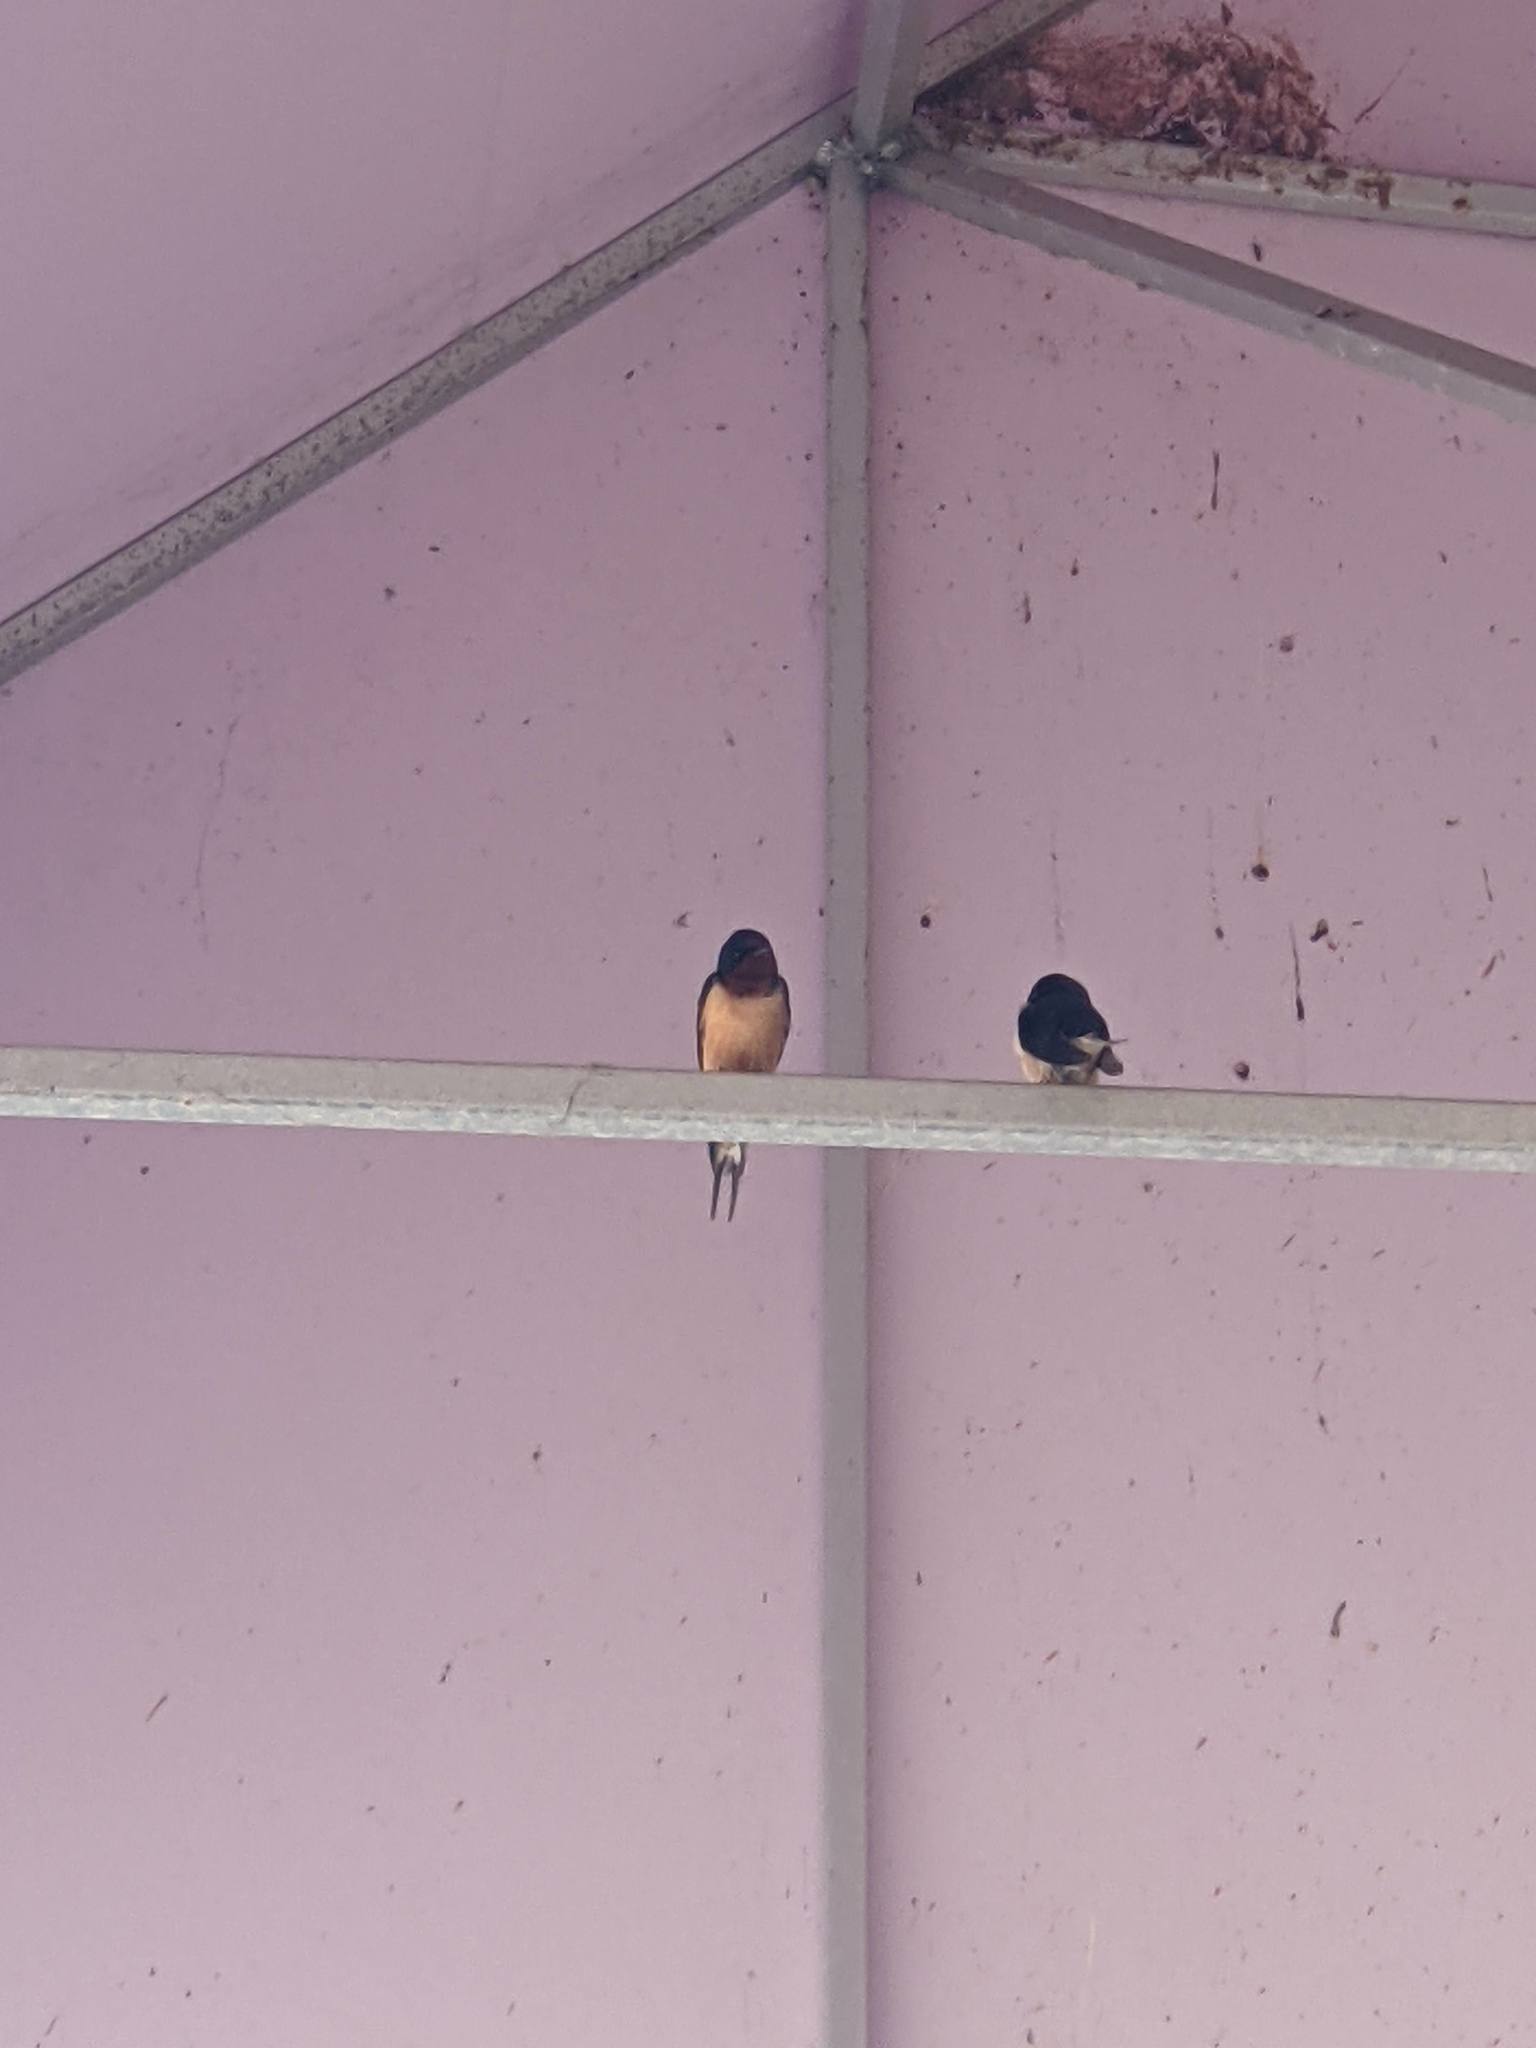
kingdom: Animalia
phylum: Chordata
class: Aves
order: Passeriformes
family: Hirundinidae
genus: Hirundo
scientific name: Hirundo rustica
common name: Barn swallow
